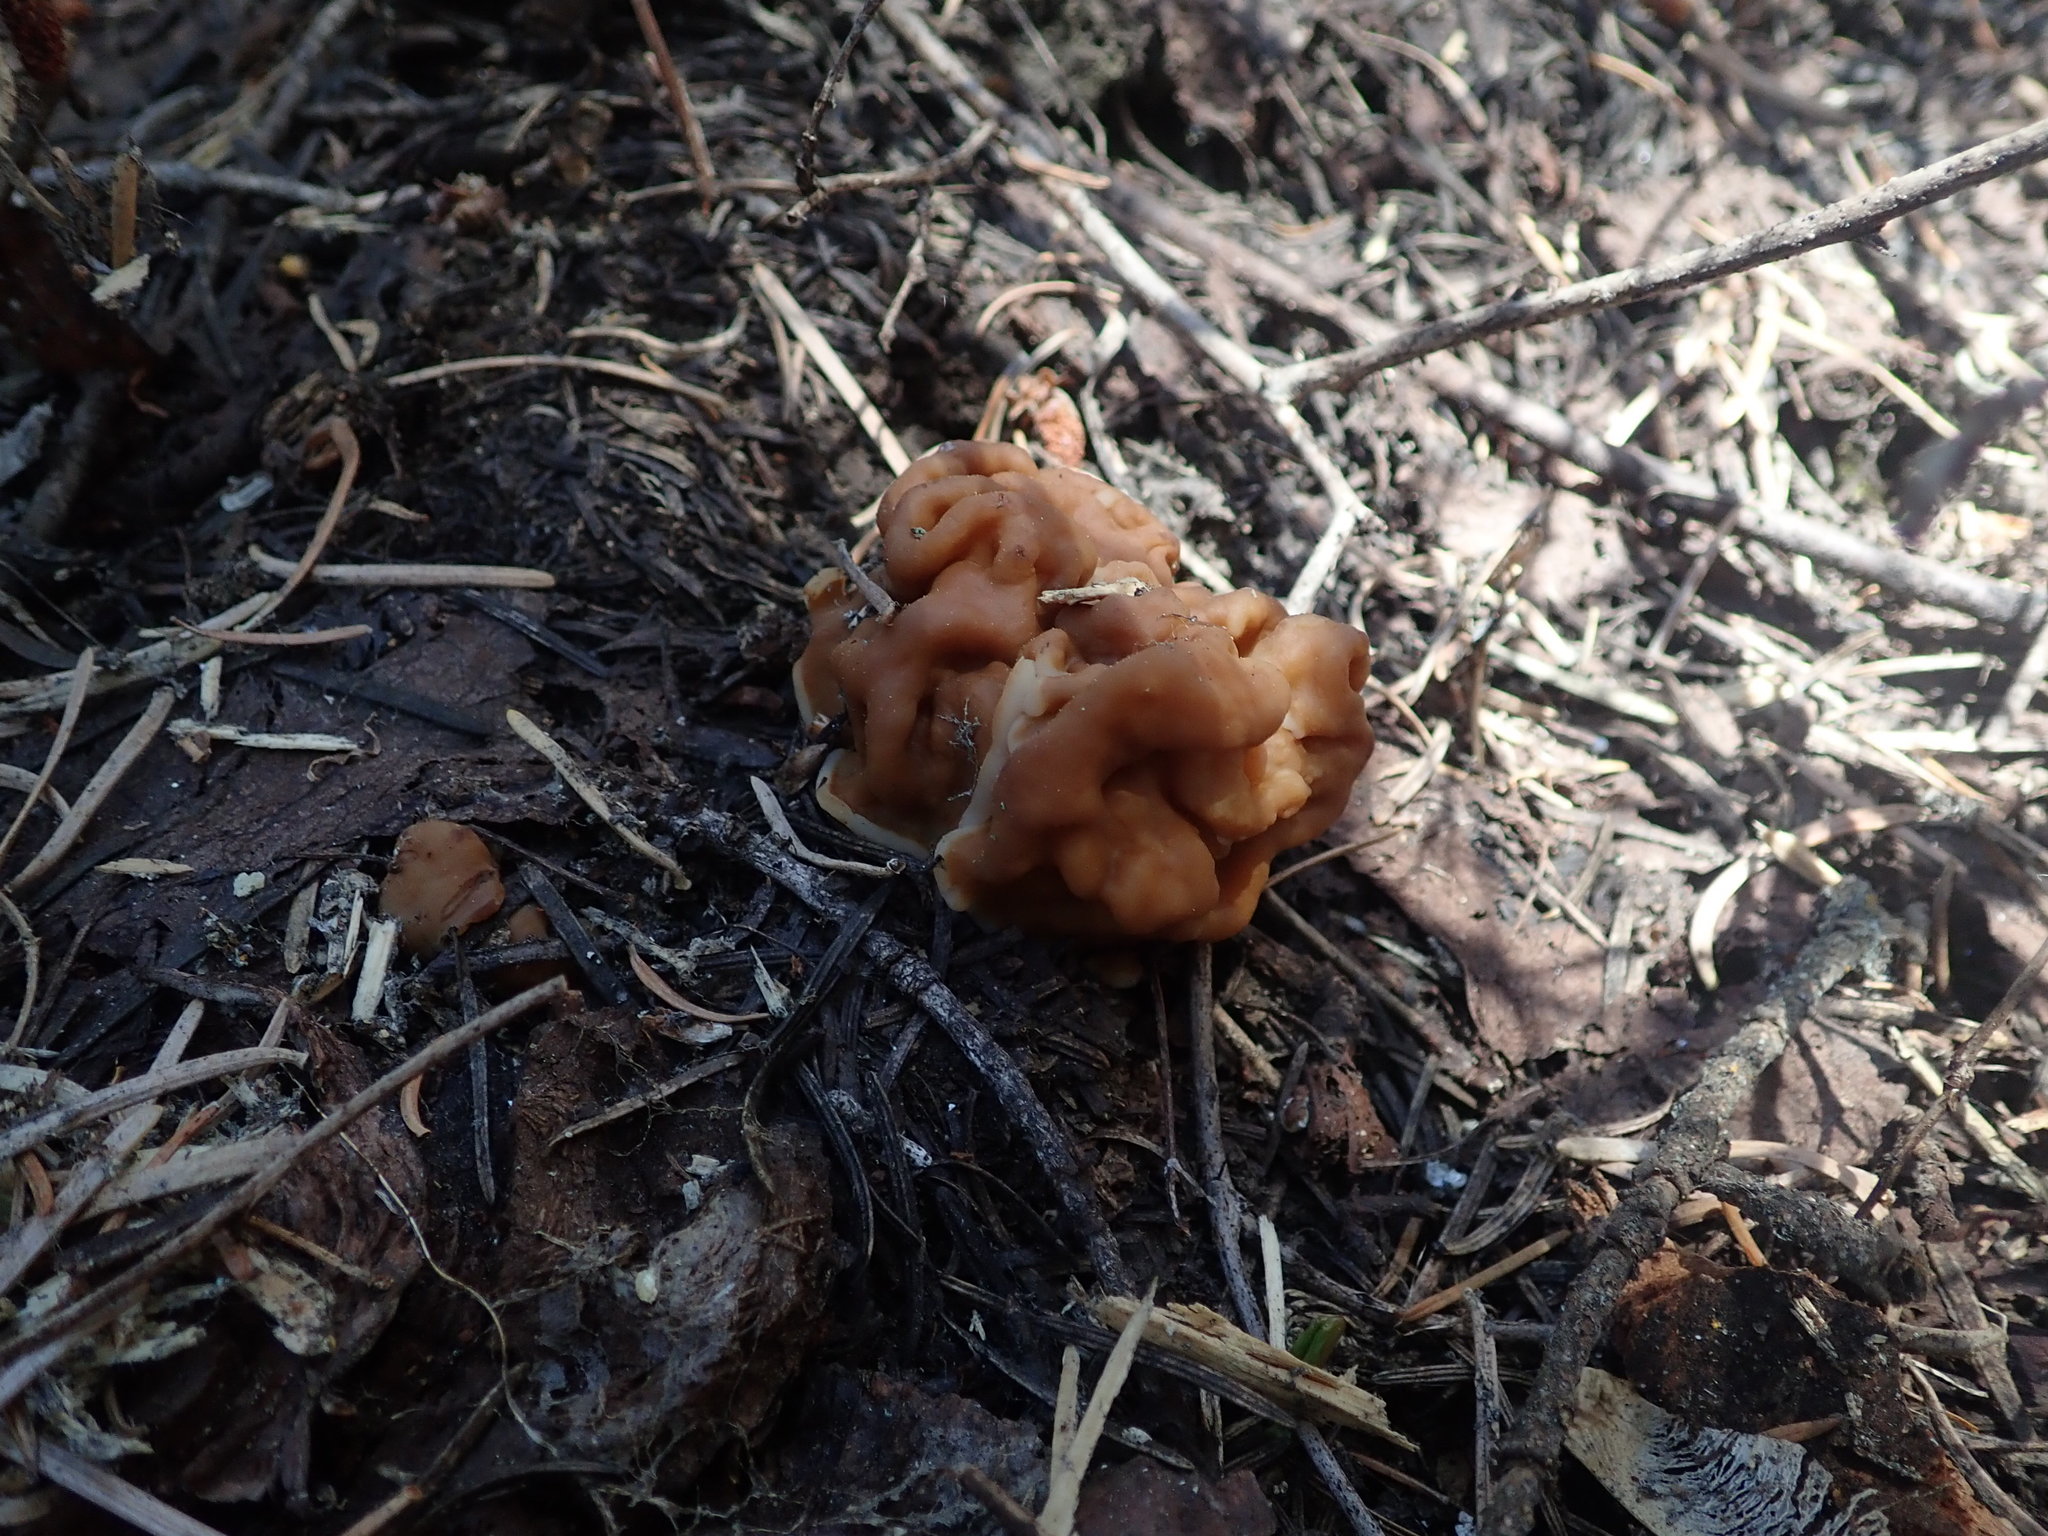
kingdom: Fungi
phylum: Ascomycota
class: Pezizomycetes
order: Pezizales
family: Discinaceae
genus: Discina
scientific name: Discina montana
